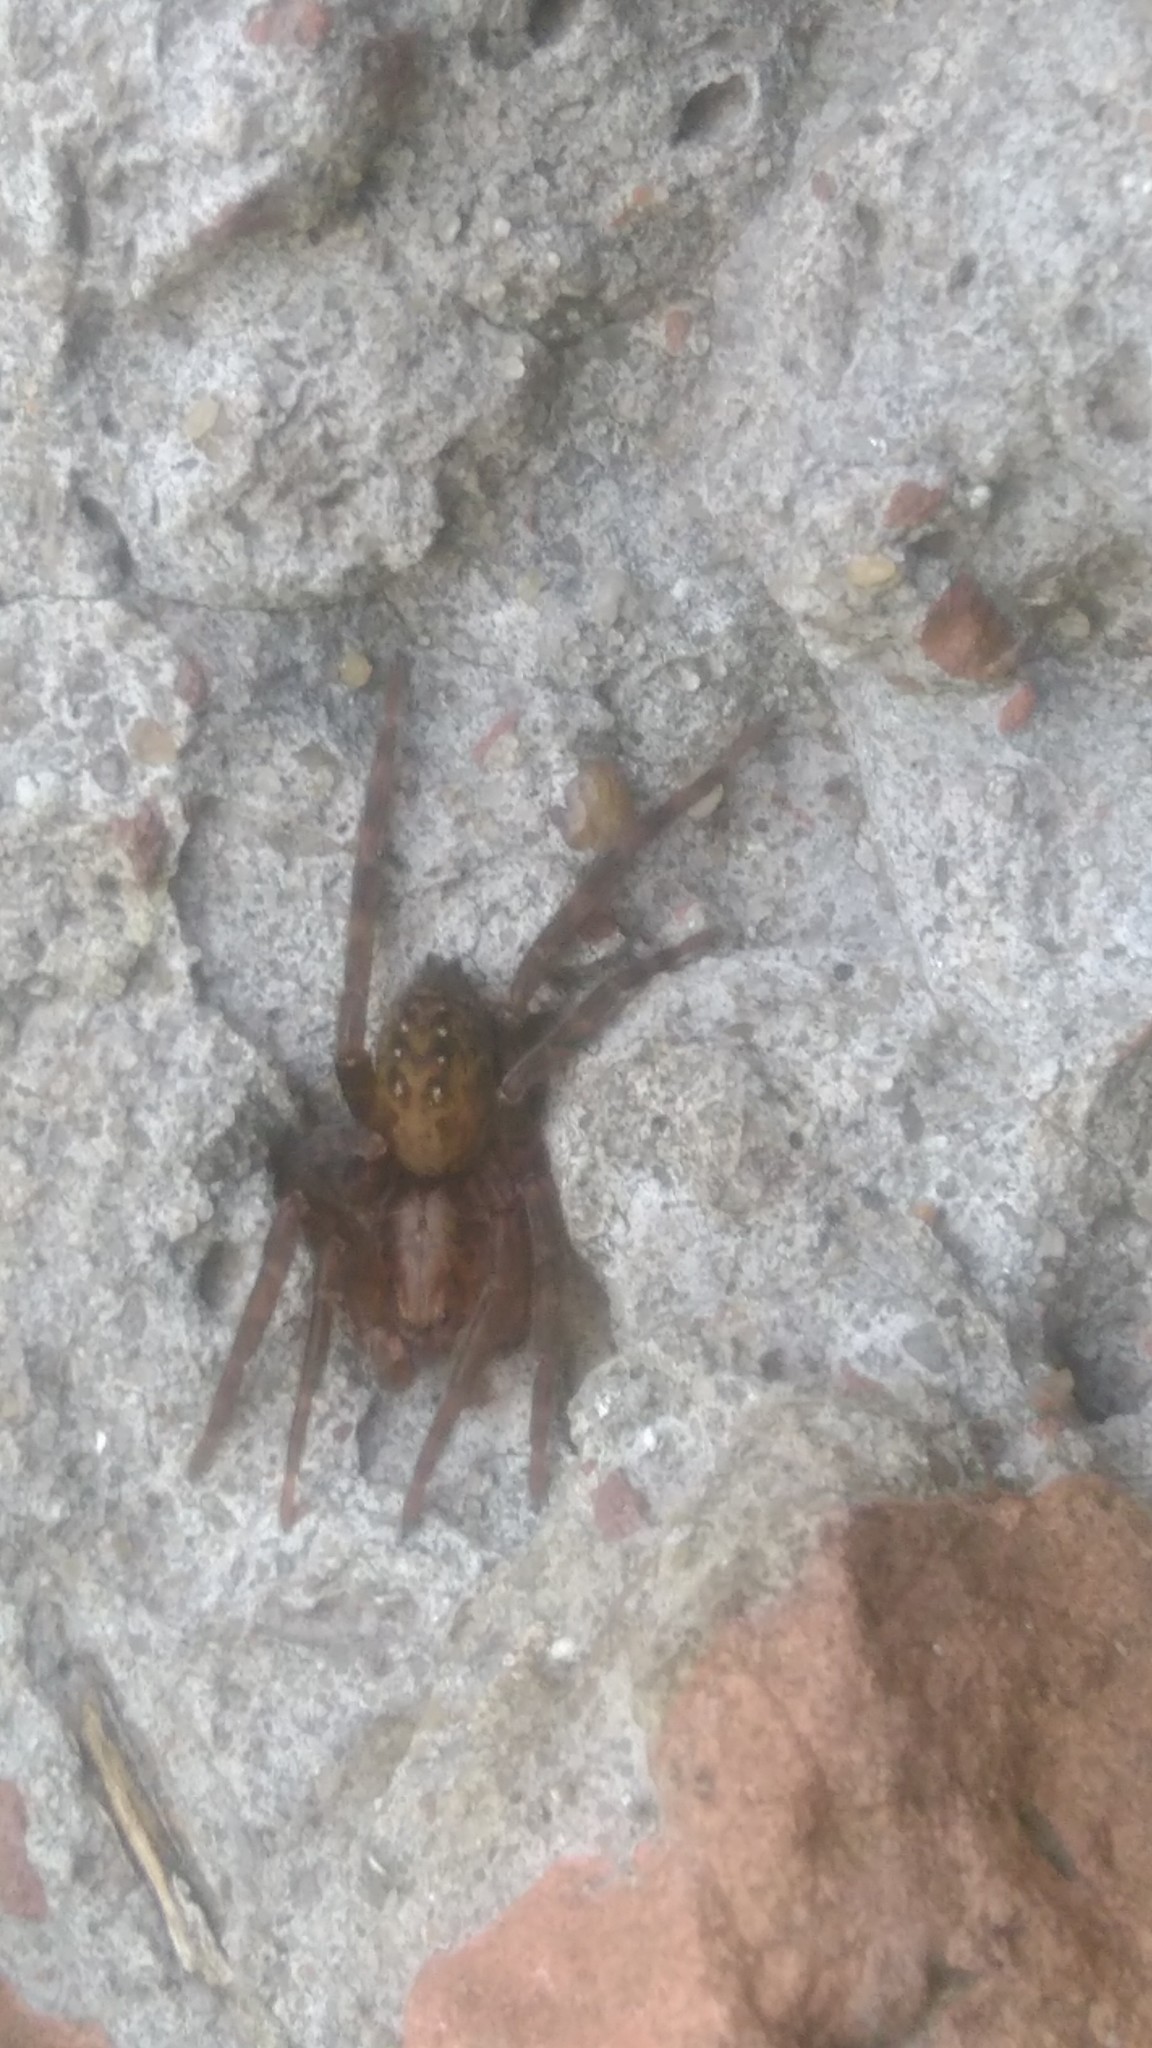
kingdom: Animalia
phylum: Arthropoda
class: Arachnida
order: Araneae
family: Ctenidae
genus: Asthenoctenus
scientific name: Asthenoctenus borellii
